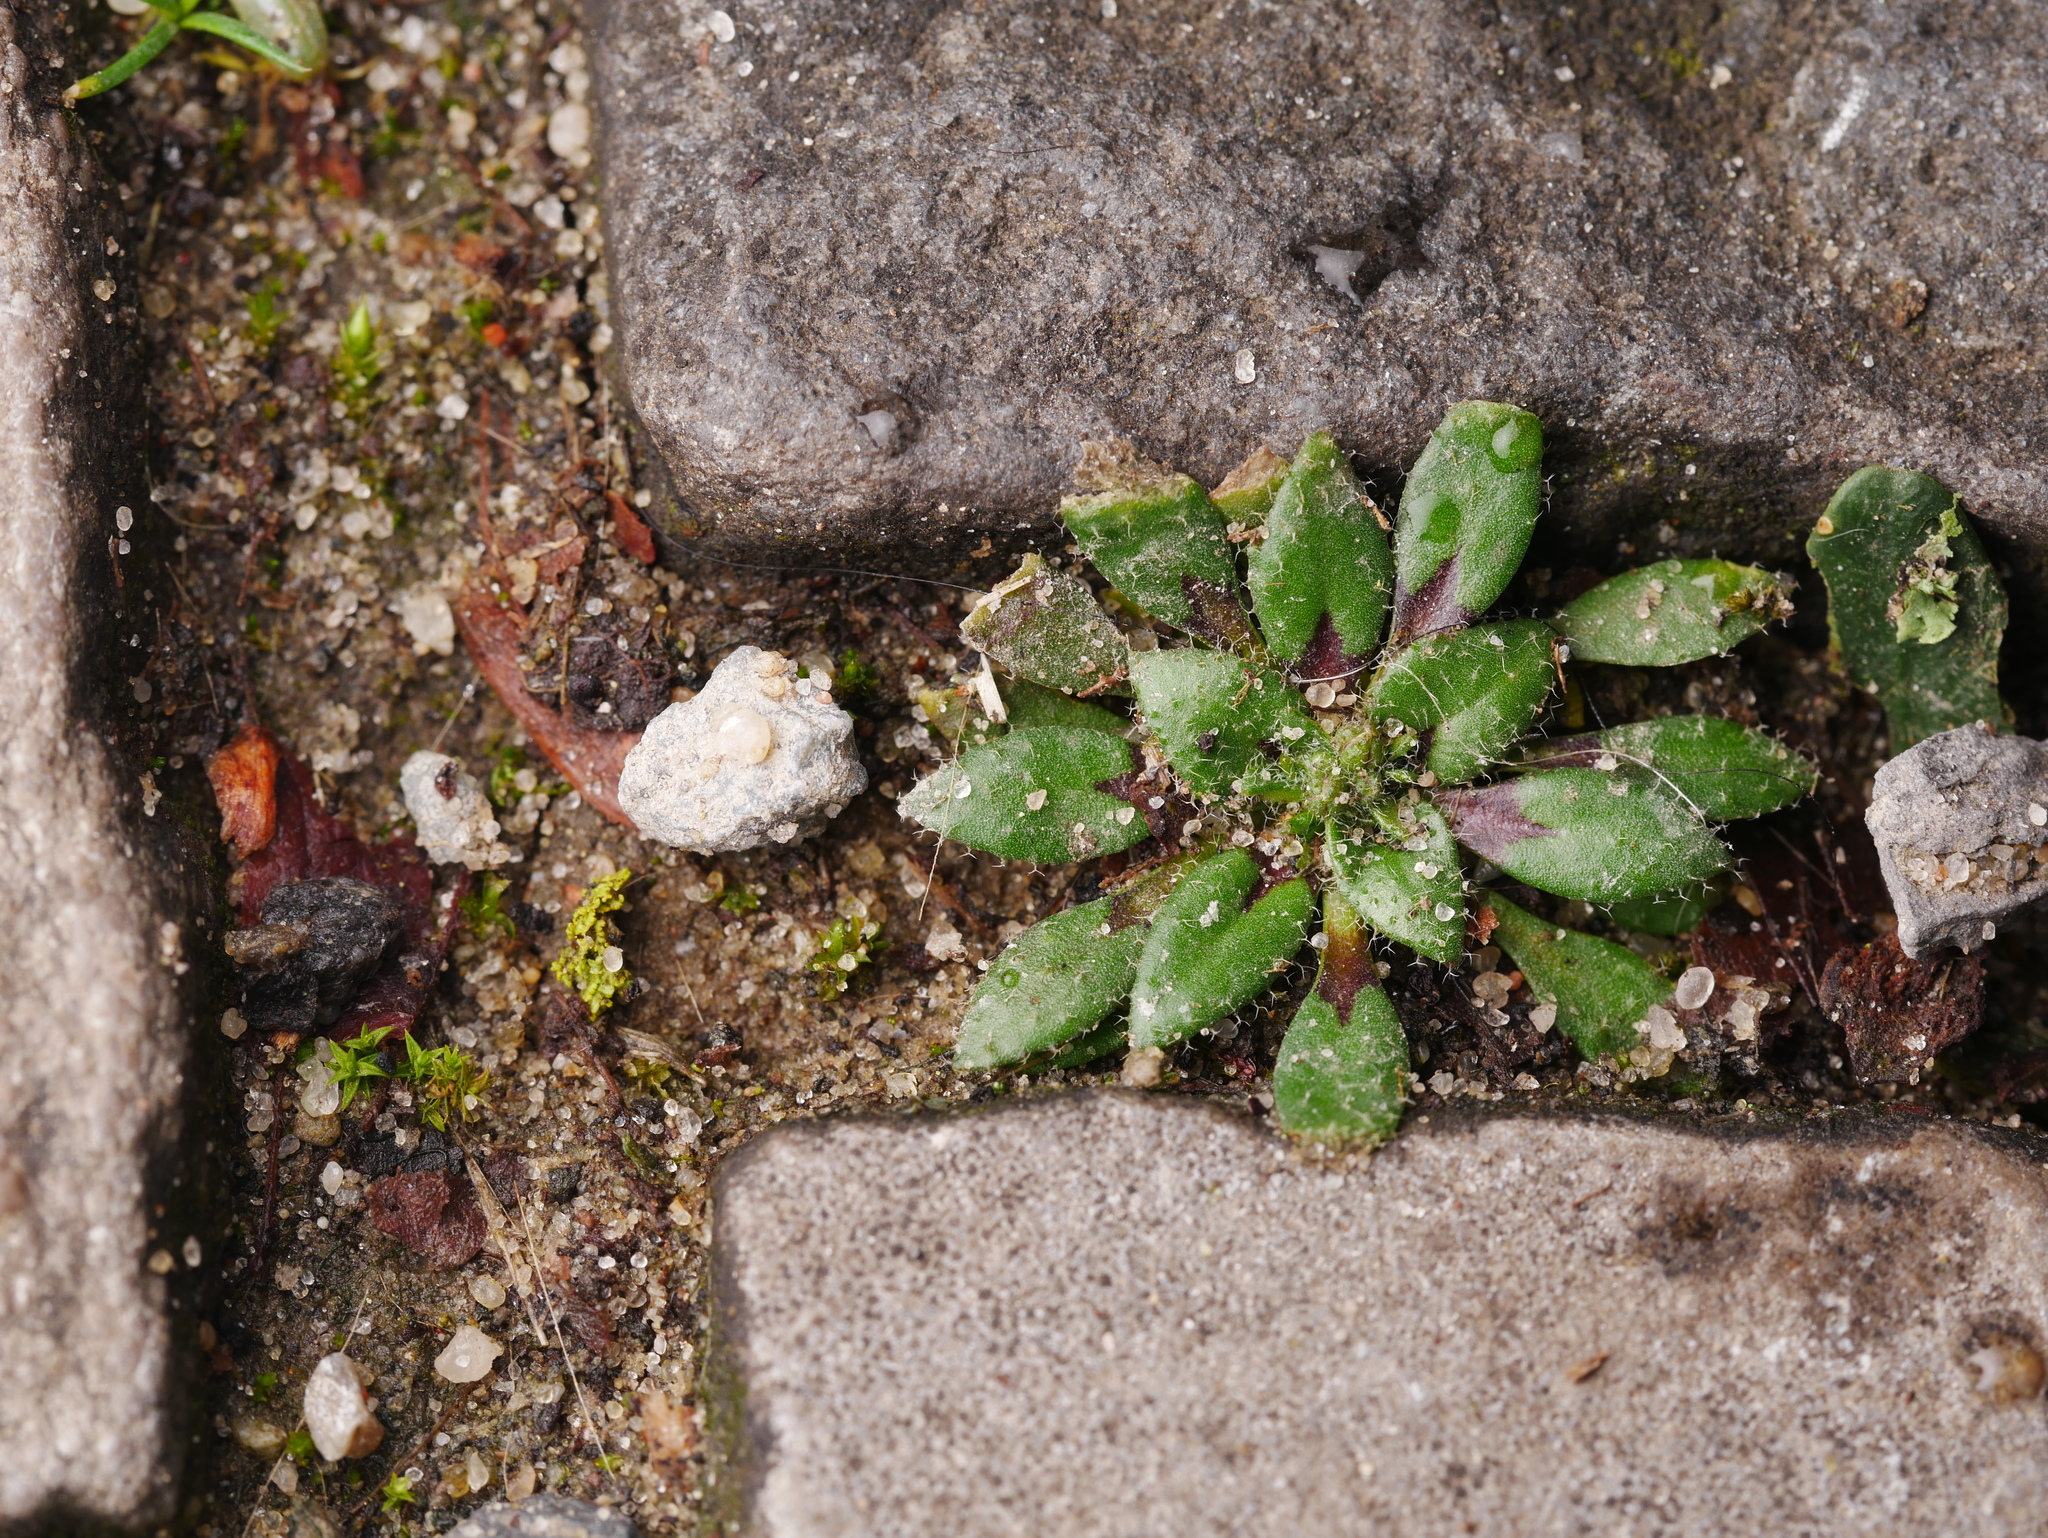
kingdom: Plantae
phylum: Tracheophyta
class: Magnoliopsida
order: Brassicales
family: Brassicaceae
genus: Draba
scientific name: Draba verna
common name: Spring draba
